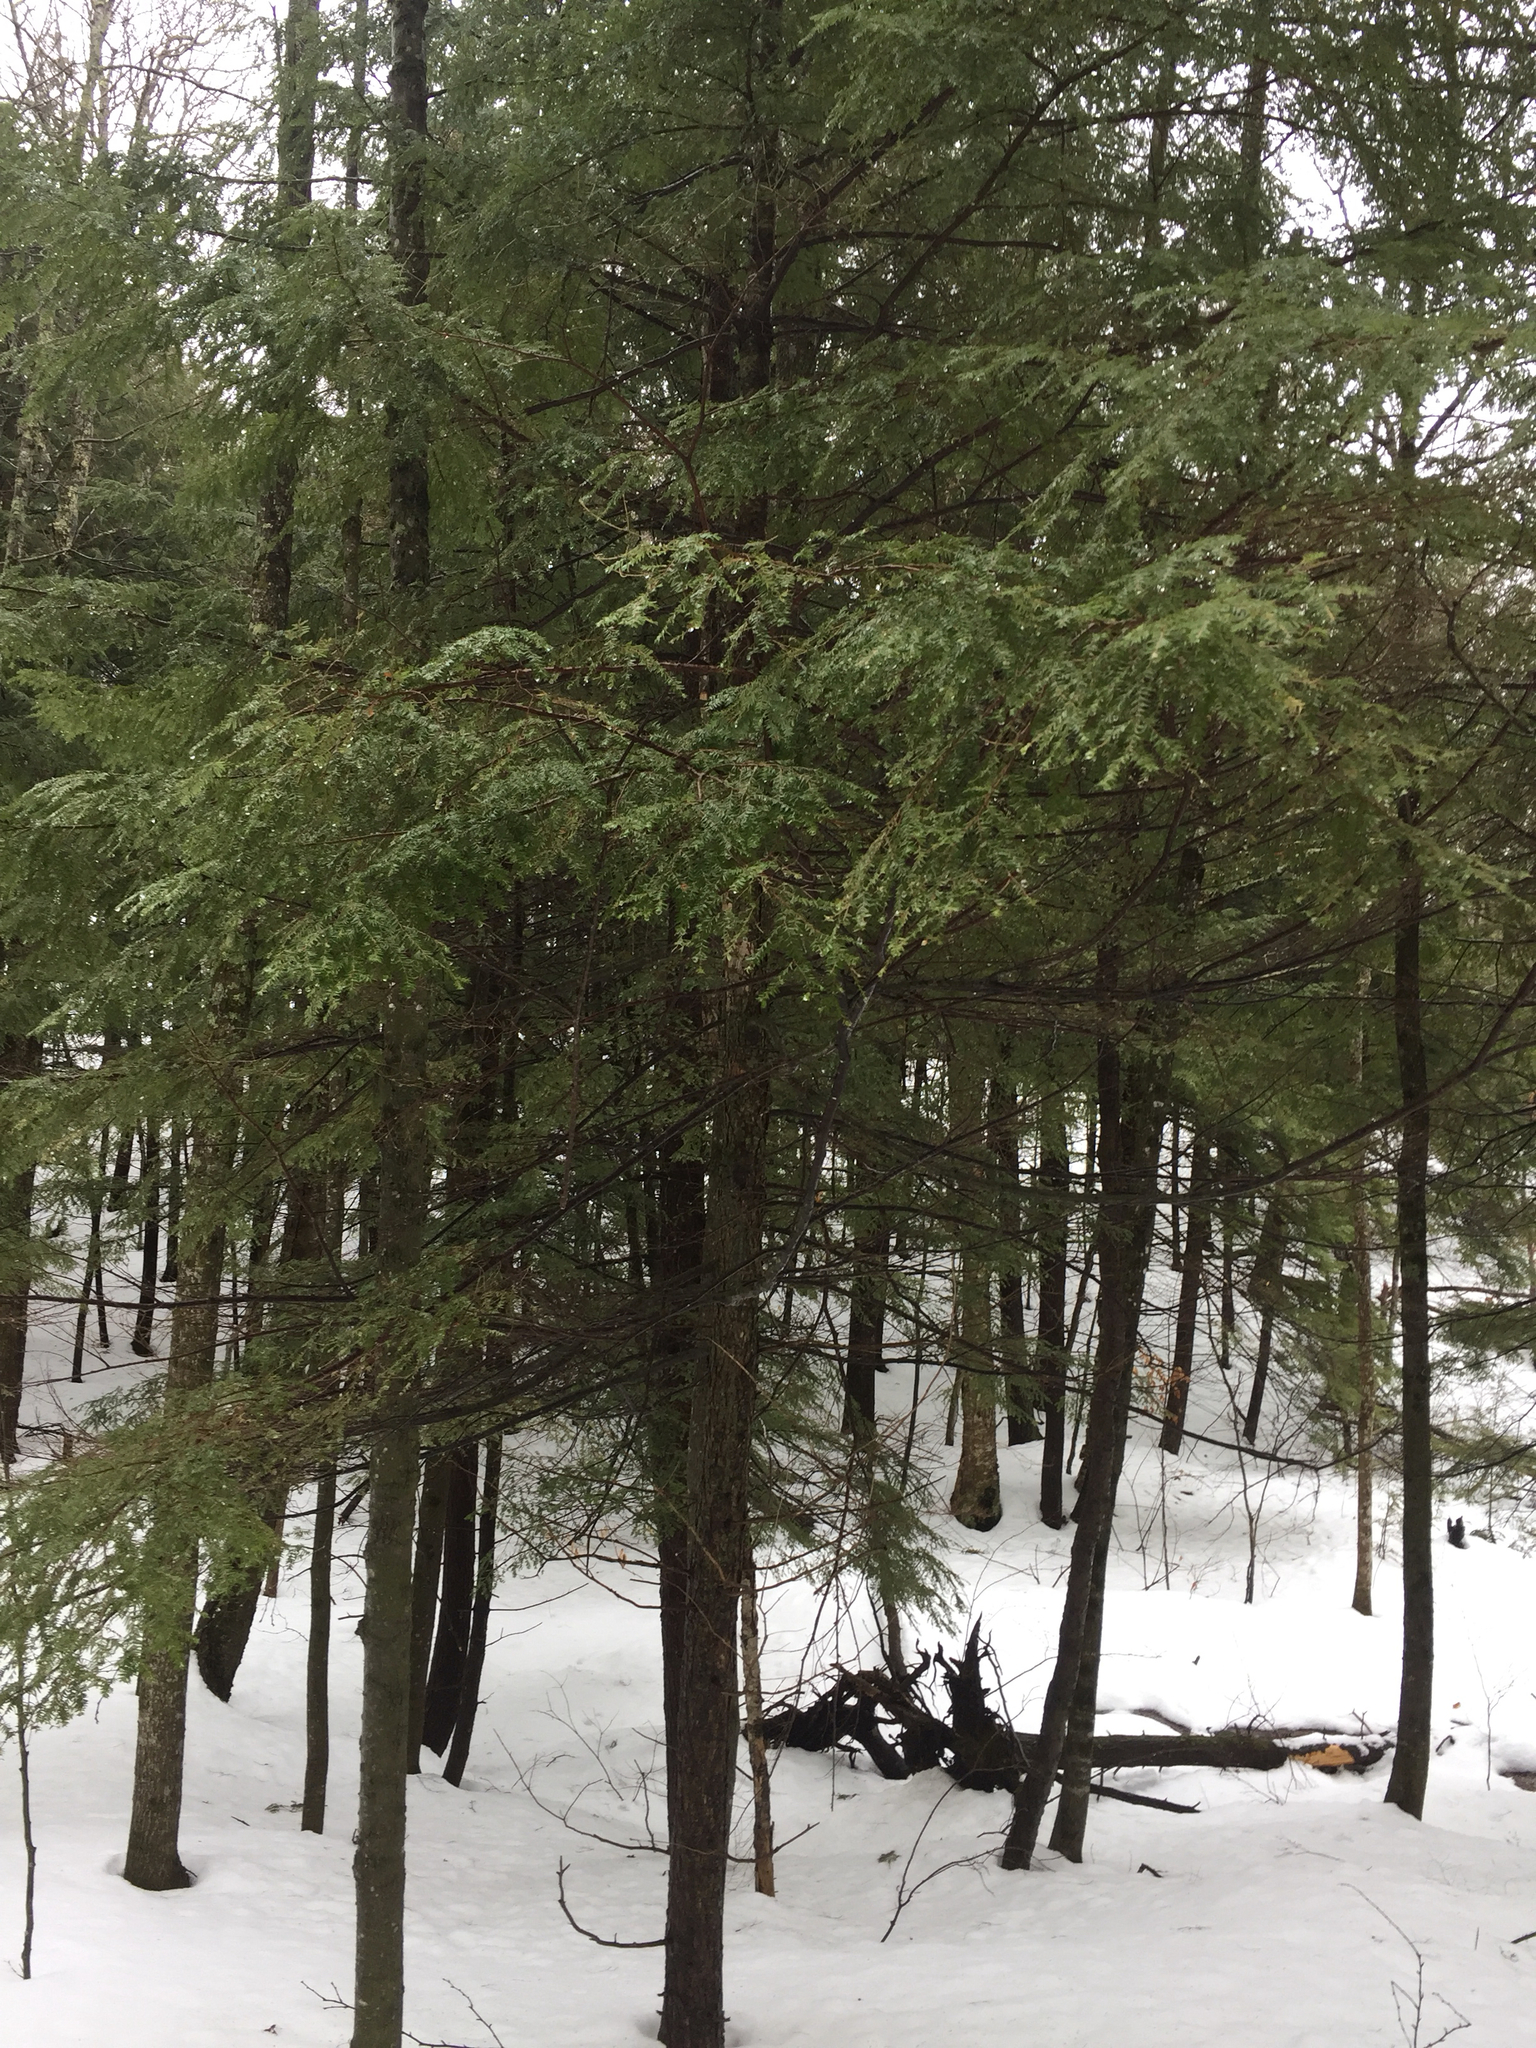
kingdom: Plantae
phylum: Tracheophyta
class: Pinopsida
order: Pinales
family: Pinaceae
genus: Tsuga
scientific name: Tsuga canadensis
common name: Eastern hemlock
